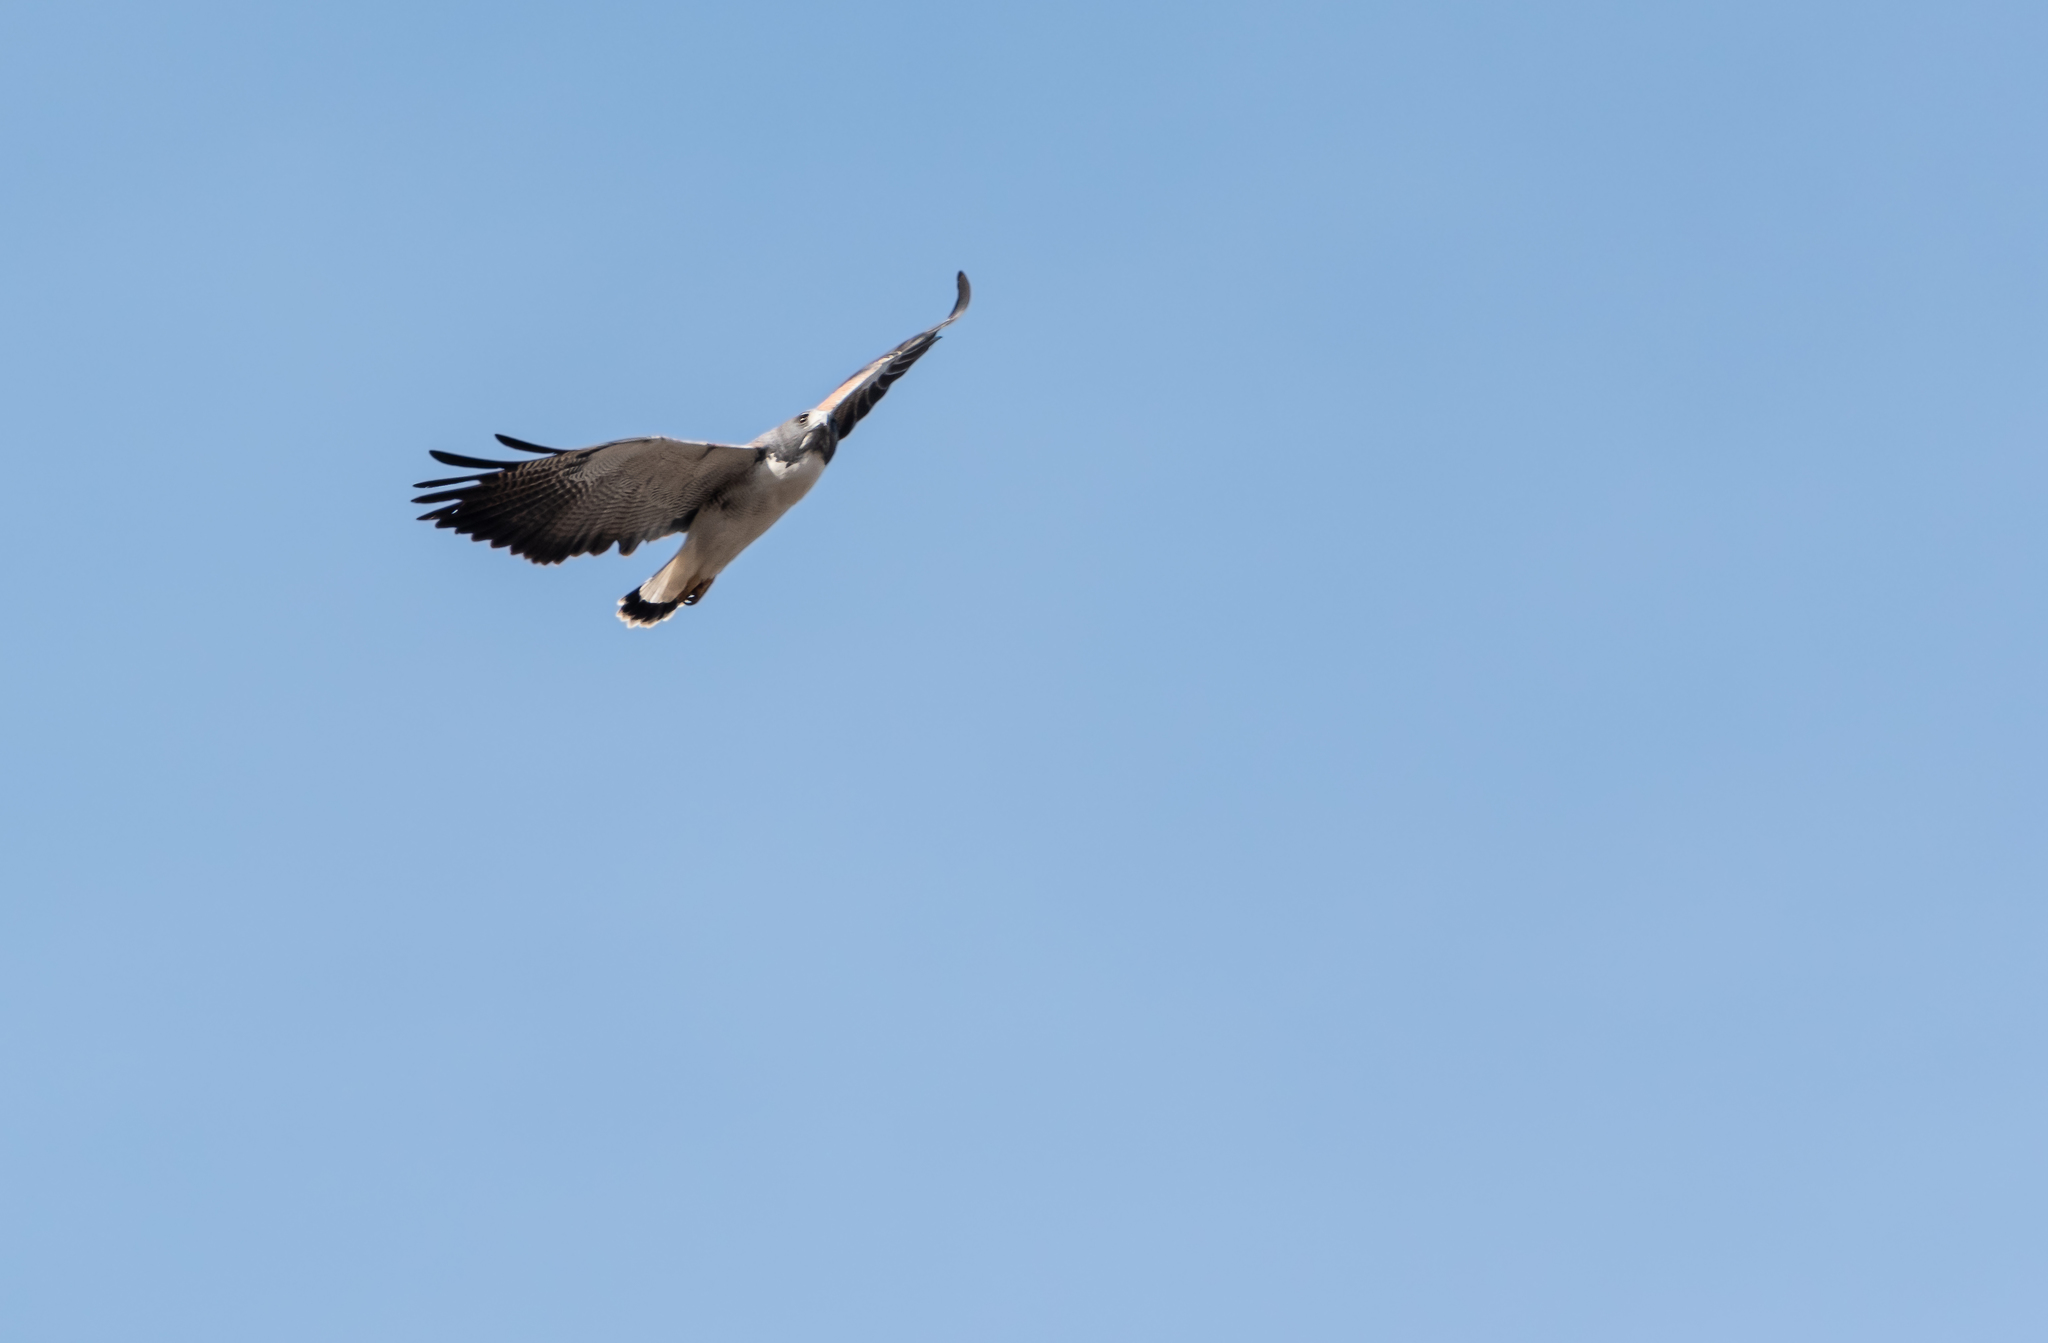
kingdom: Animalia
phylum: Chordata
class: Aves
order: Accipitriformes
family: Accipitridae
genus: Buteo
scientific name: Buteo albicaudatus
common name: White-tailed hawk
